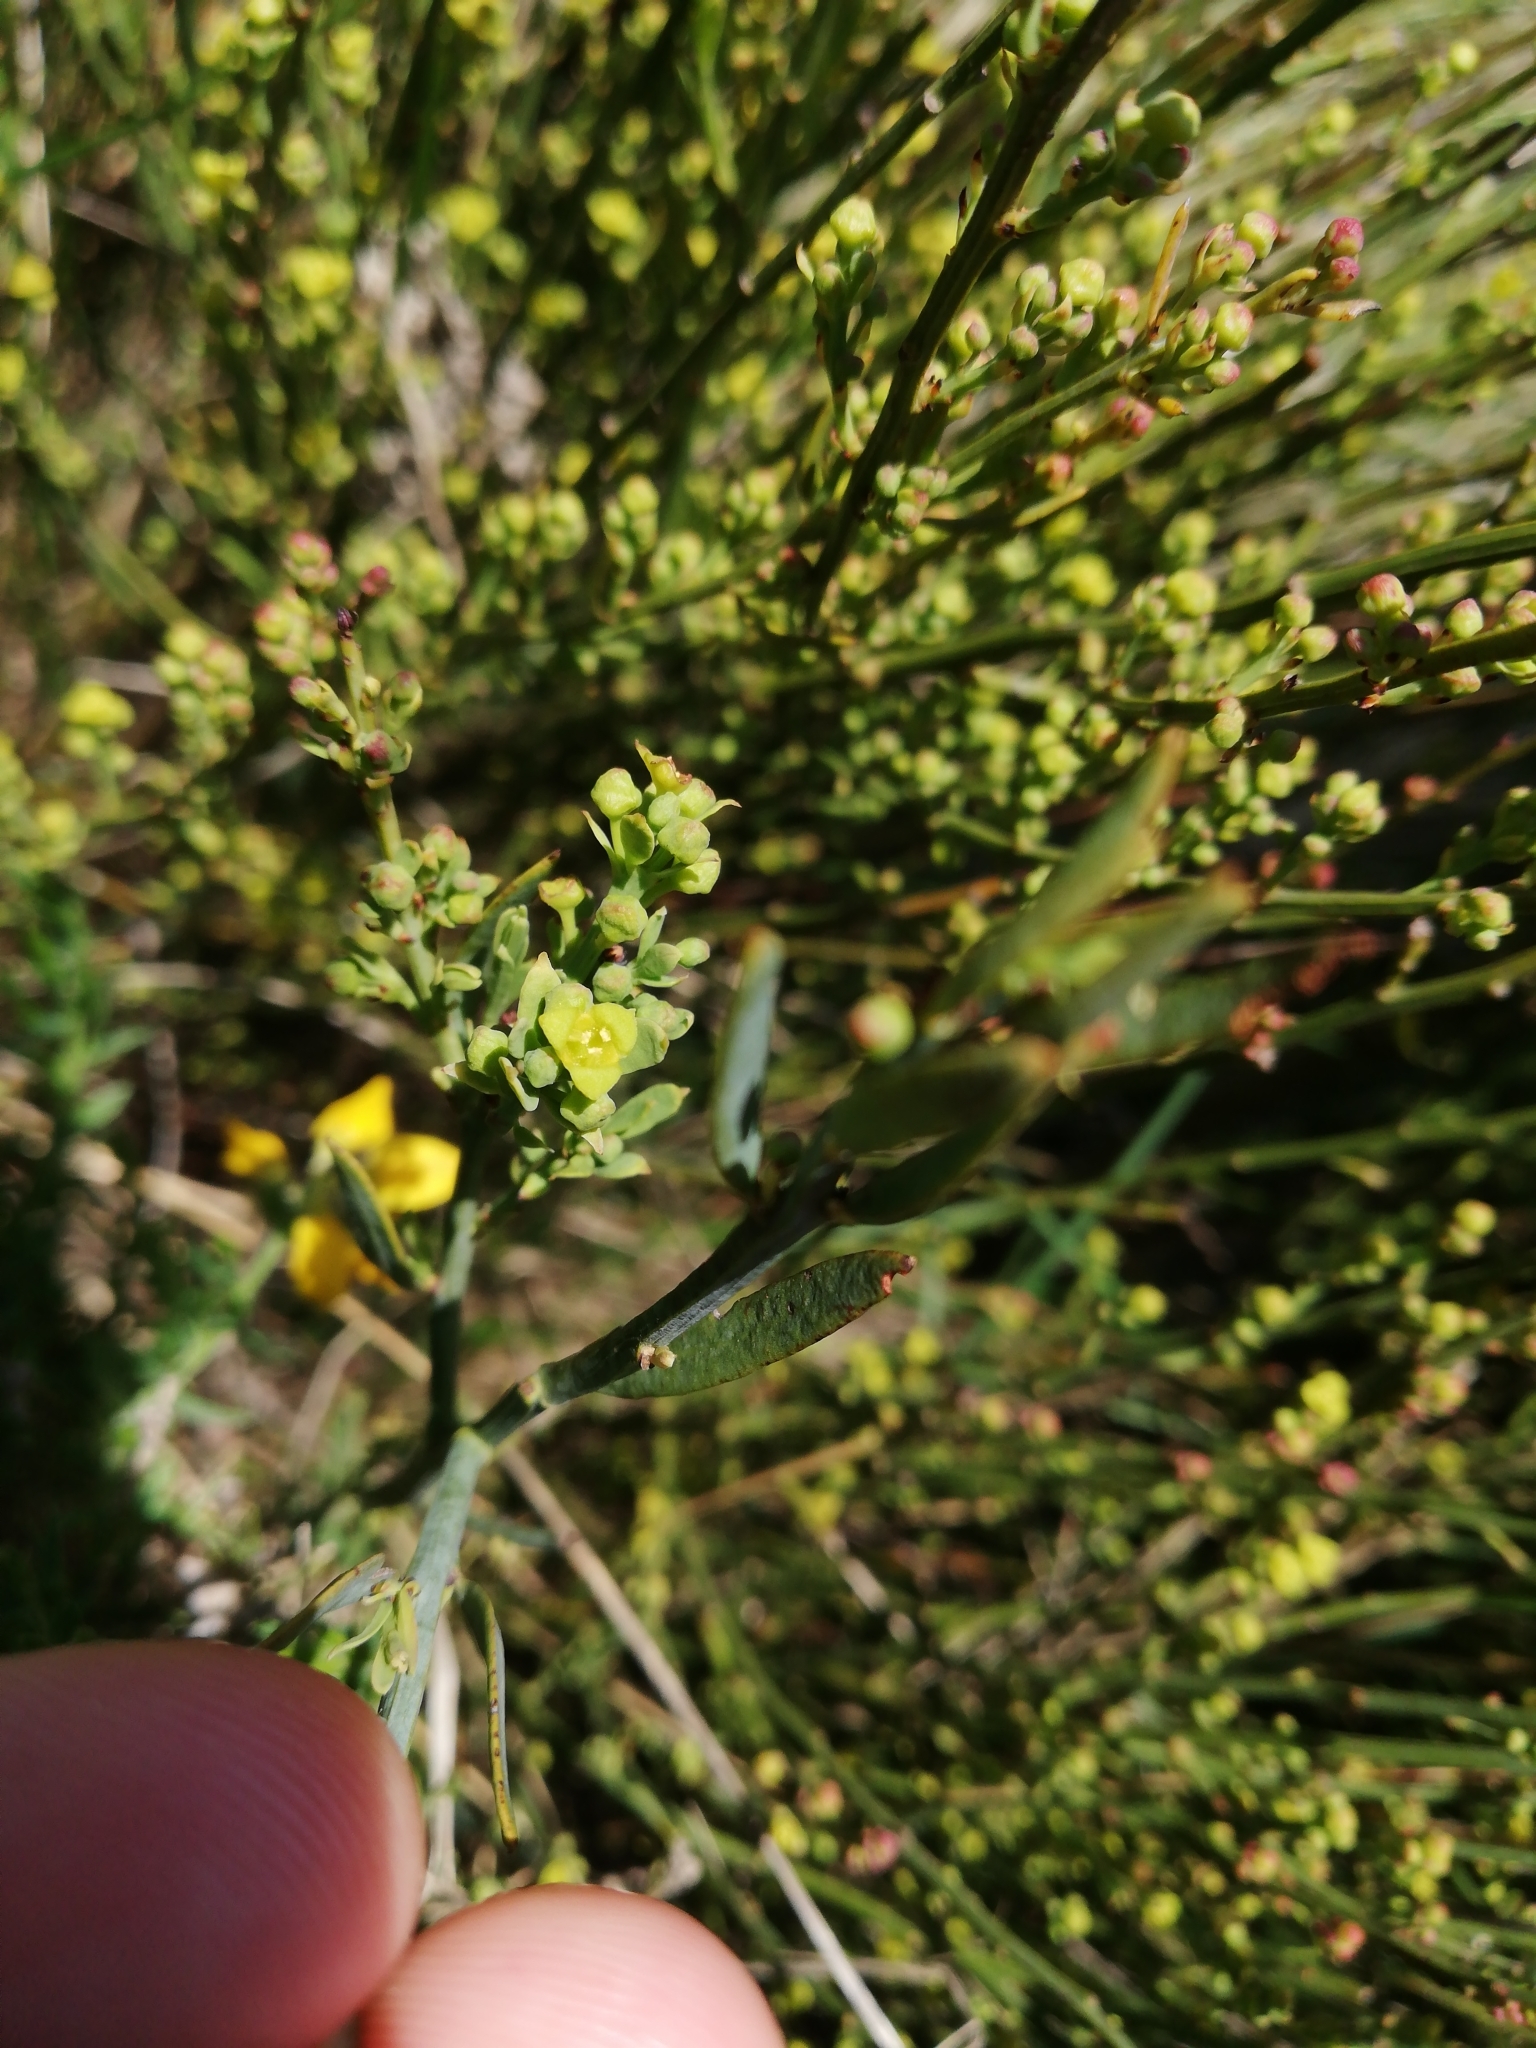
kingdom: Plantae
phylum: Tracheophyta
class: Magnoliopsida
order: Santalales
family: Santalaceae
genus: Osyris
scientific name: Osyris alba
